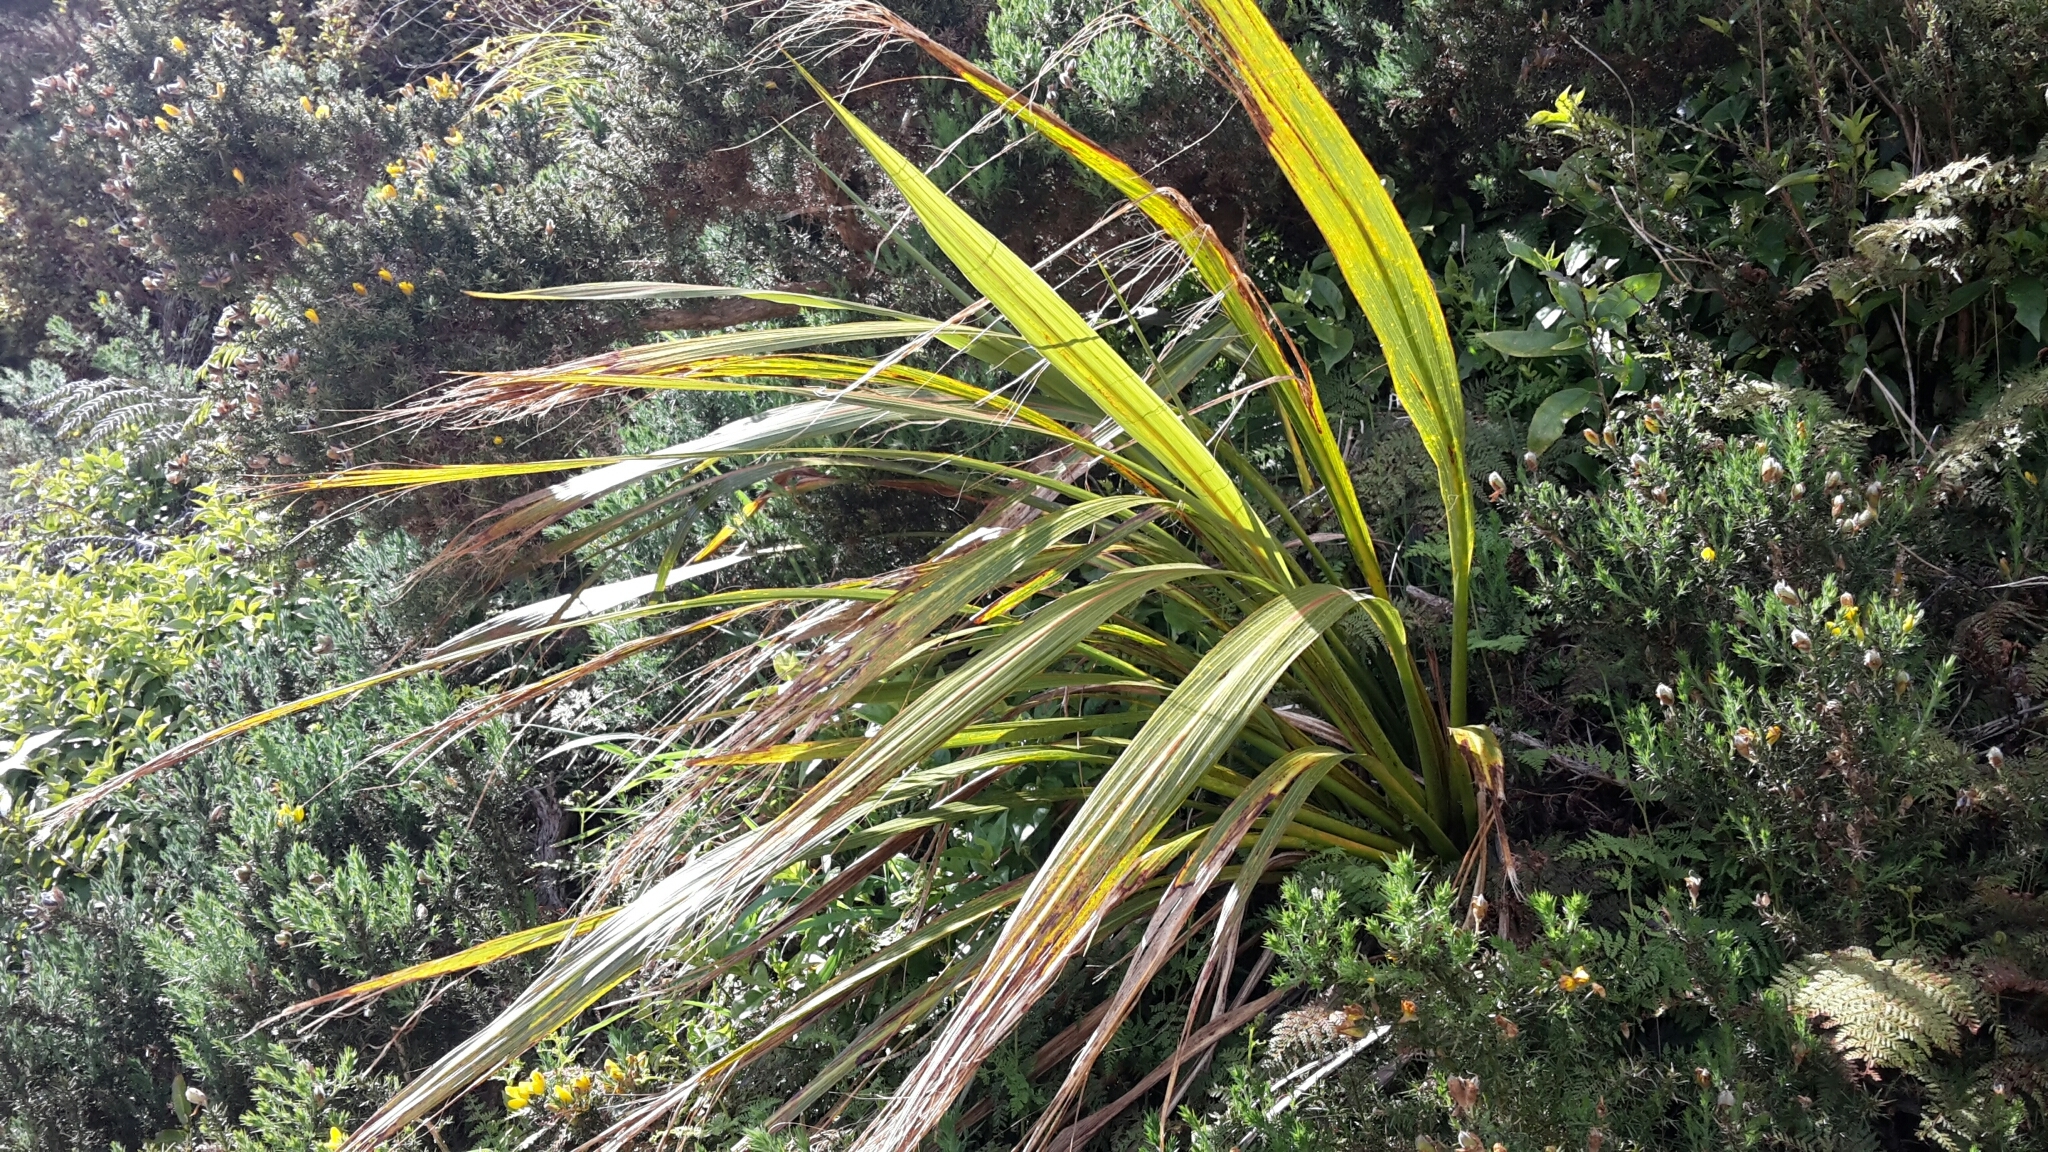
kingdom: Plantae
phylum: Tracheophyta
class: Liliopsida
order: Asparagales
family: Asparagaceae
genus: Cordyline
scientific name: Cordyline banksii
